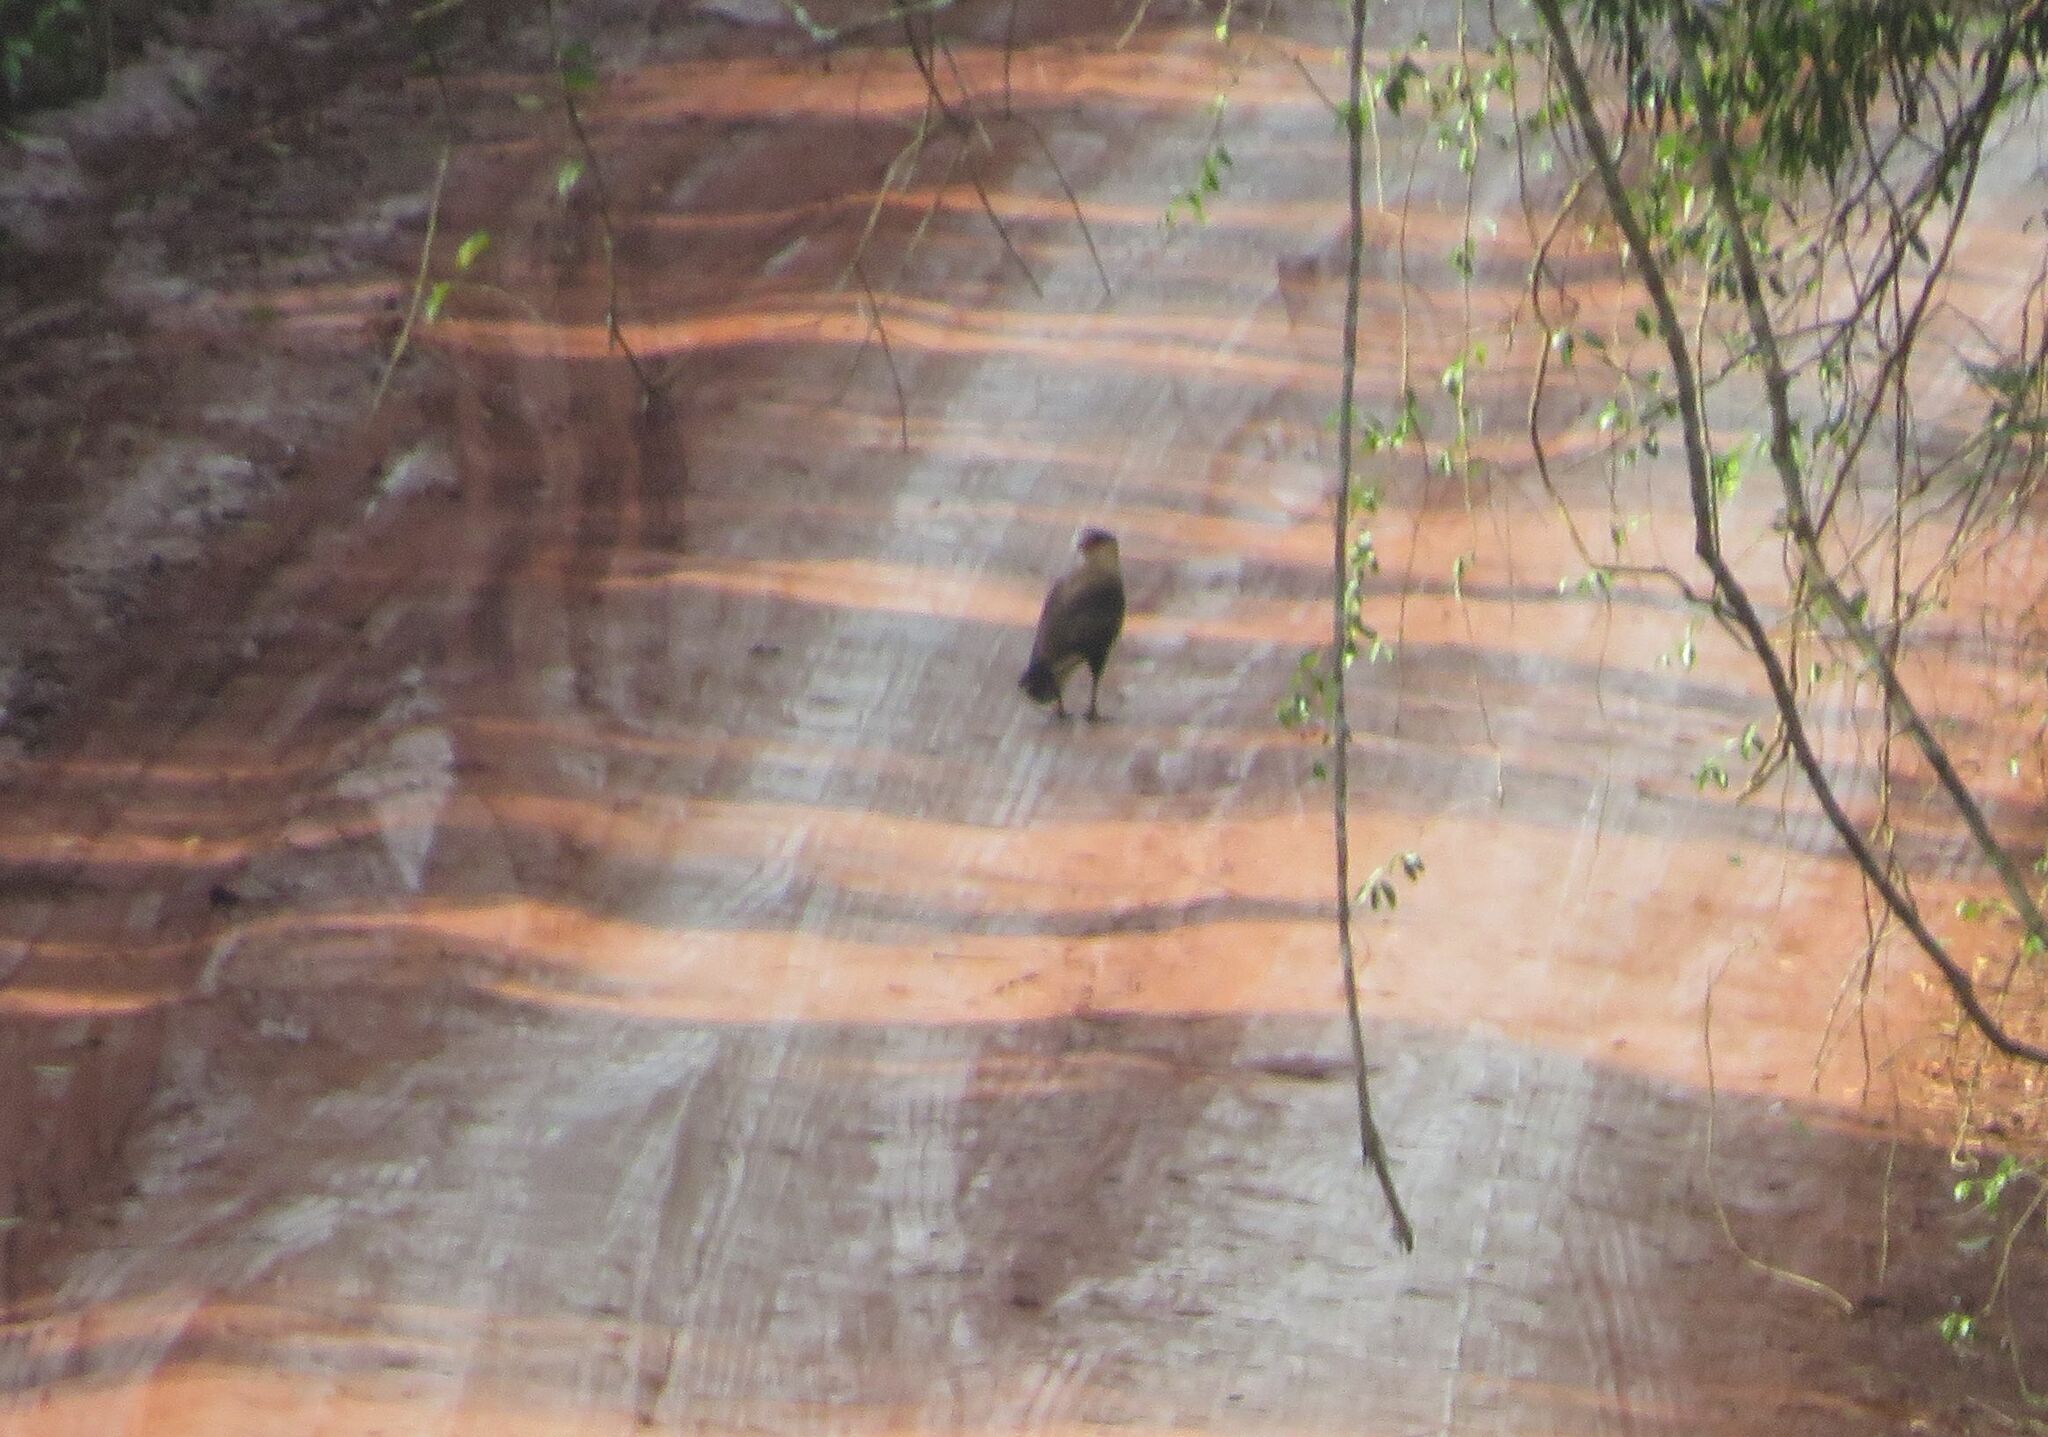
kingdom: Animalia
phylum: Chordata
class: Aves
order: Falconiformes
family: Falconidae
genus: Caracara
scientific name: Caracara plancus
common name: Southern caracara
